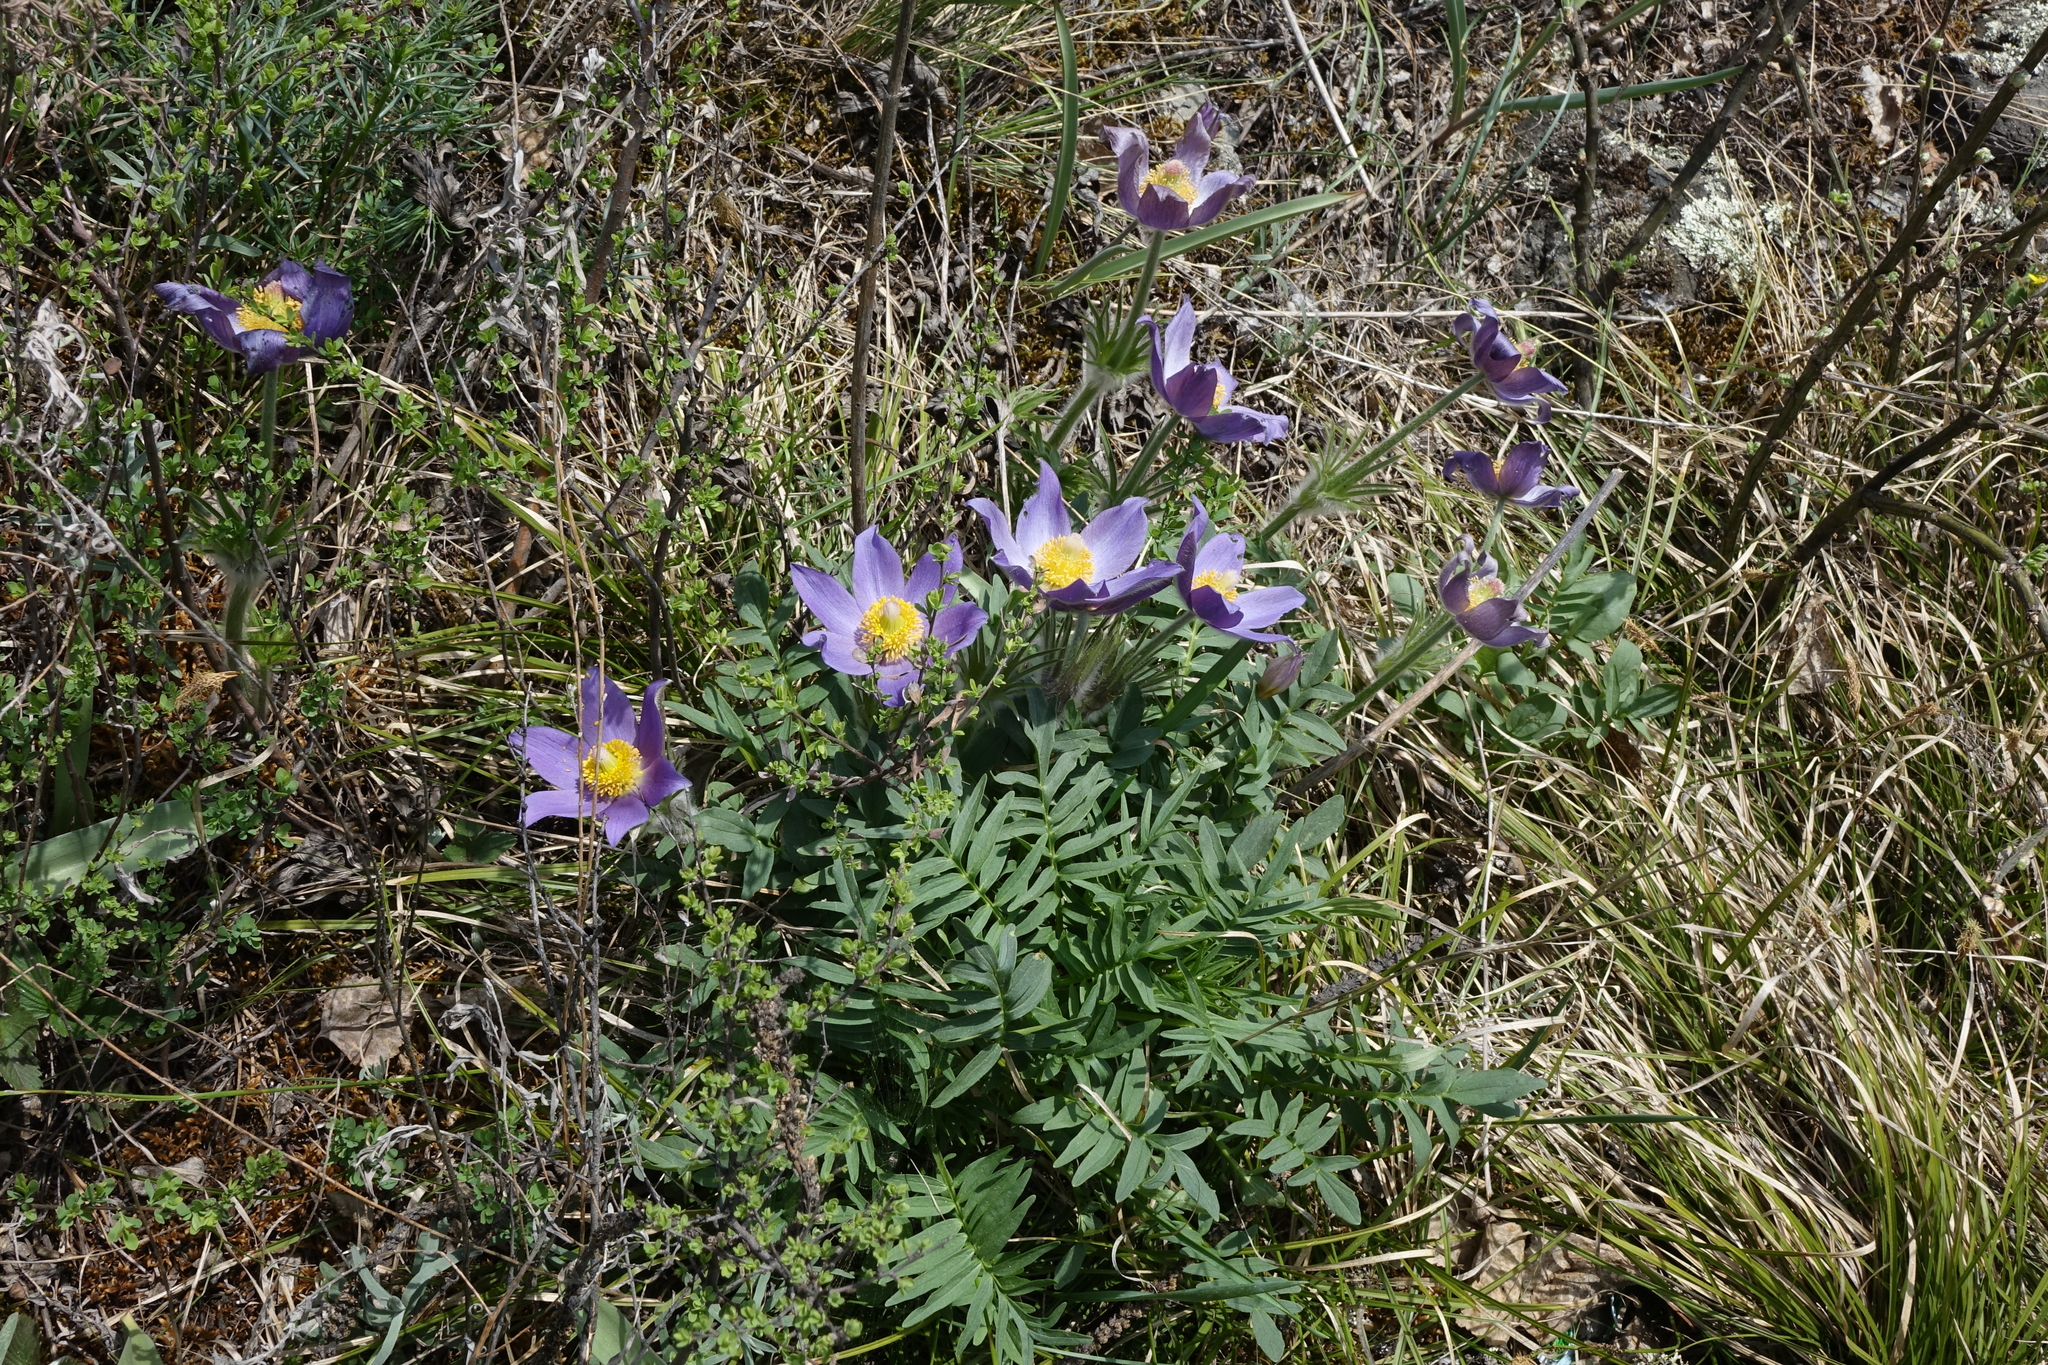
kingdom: Plantae
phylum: Tracheophyta
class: Magnoliopsida
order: Ranunculales
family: Ranunculaceae
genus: Pulsatilla
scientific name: Pulsatilla patens
